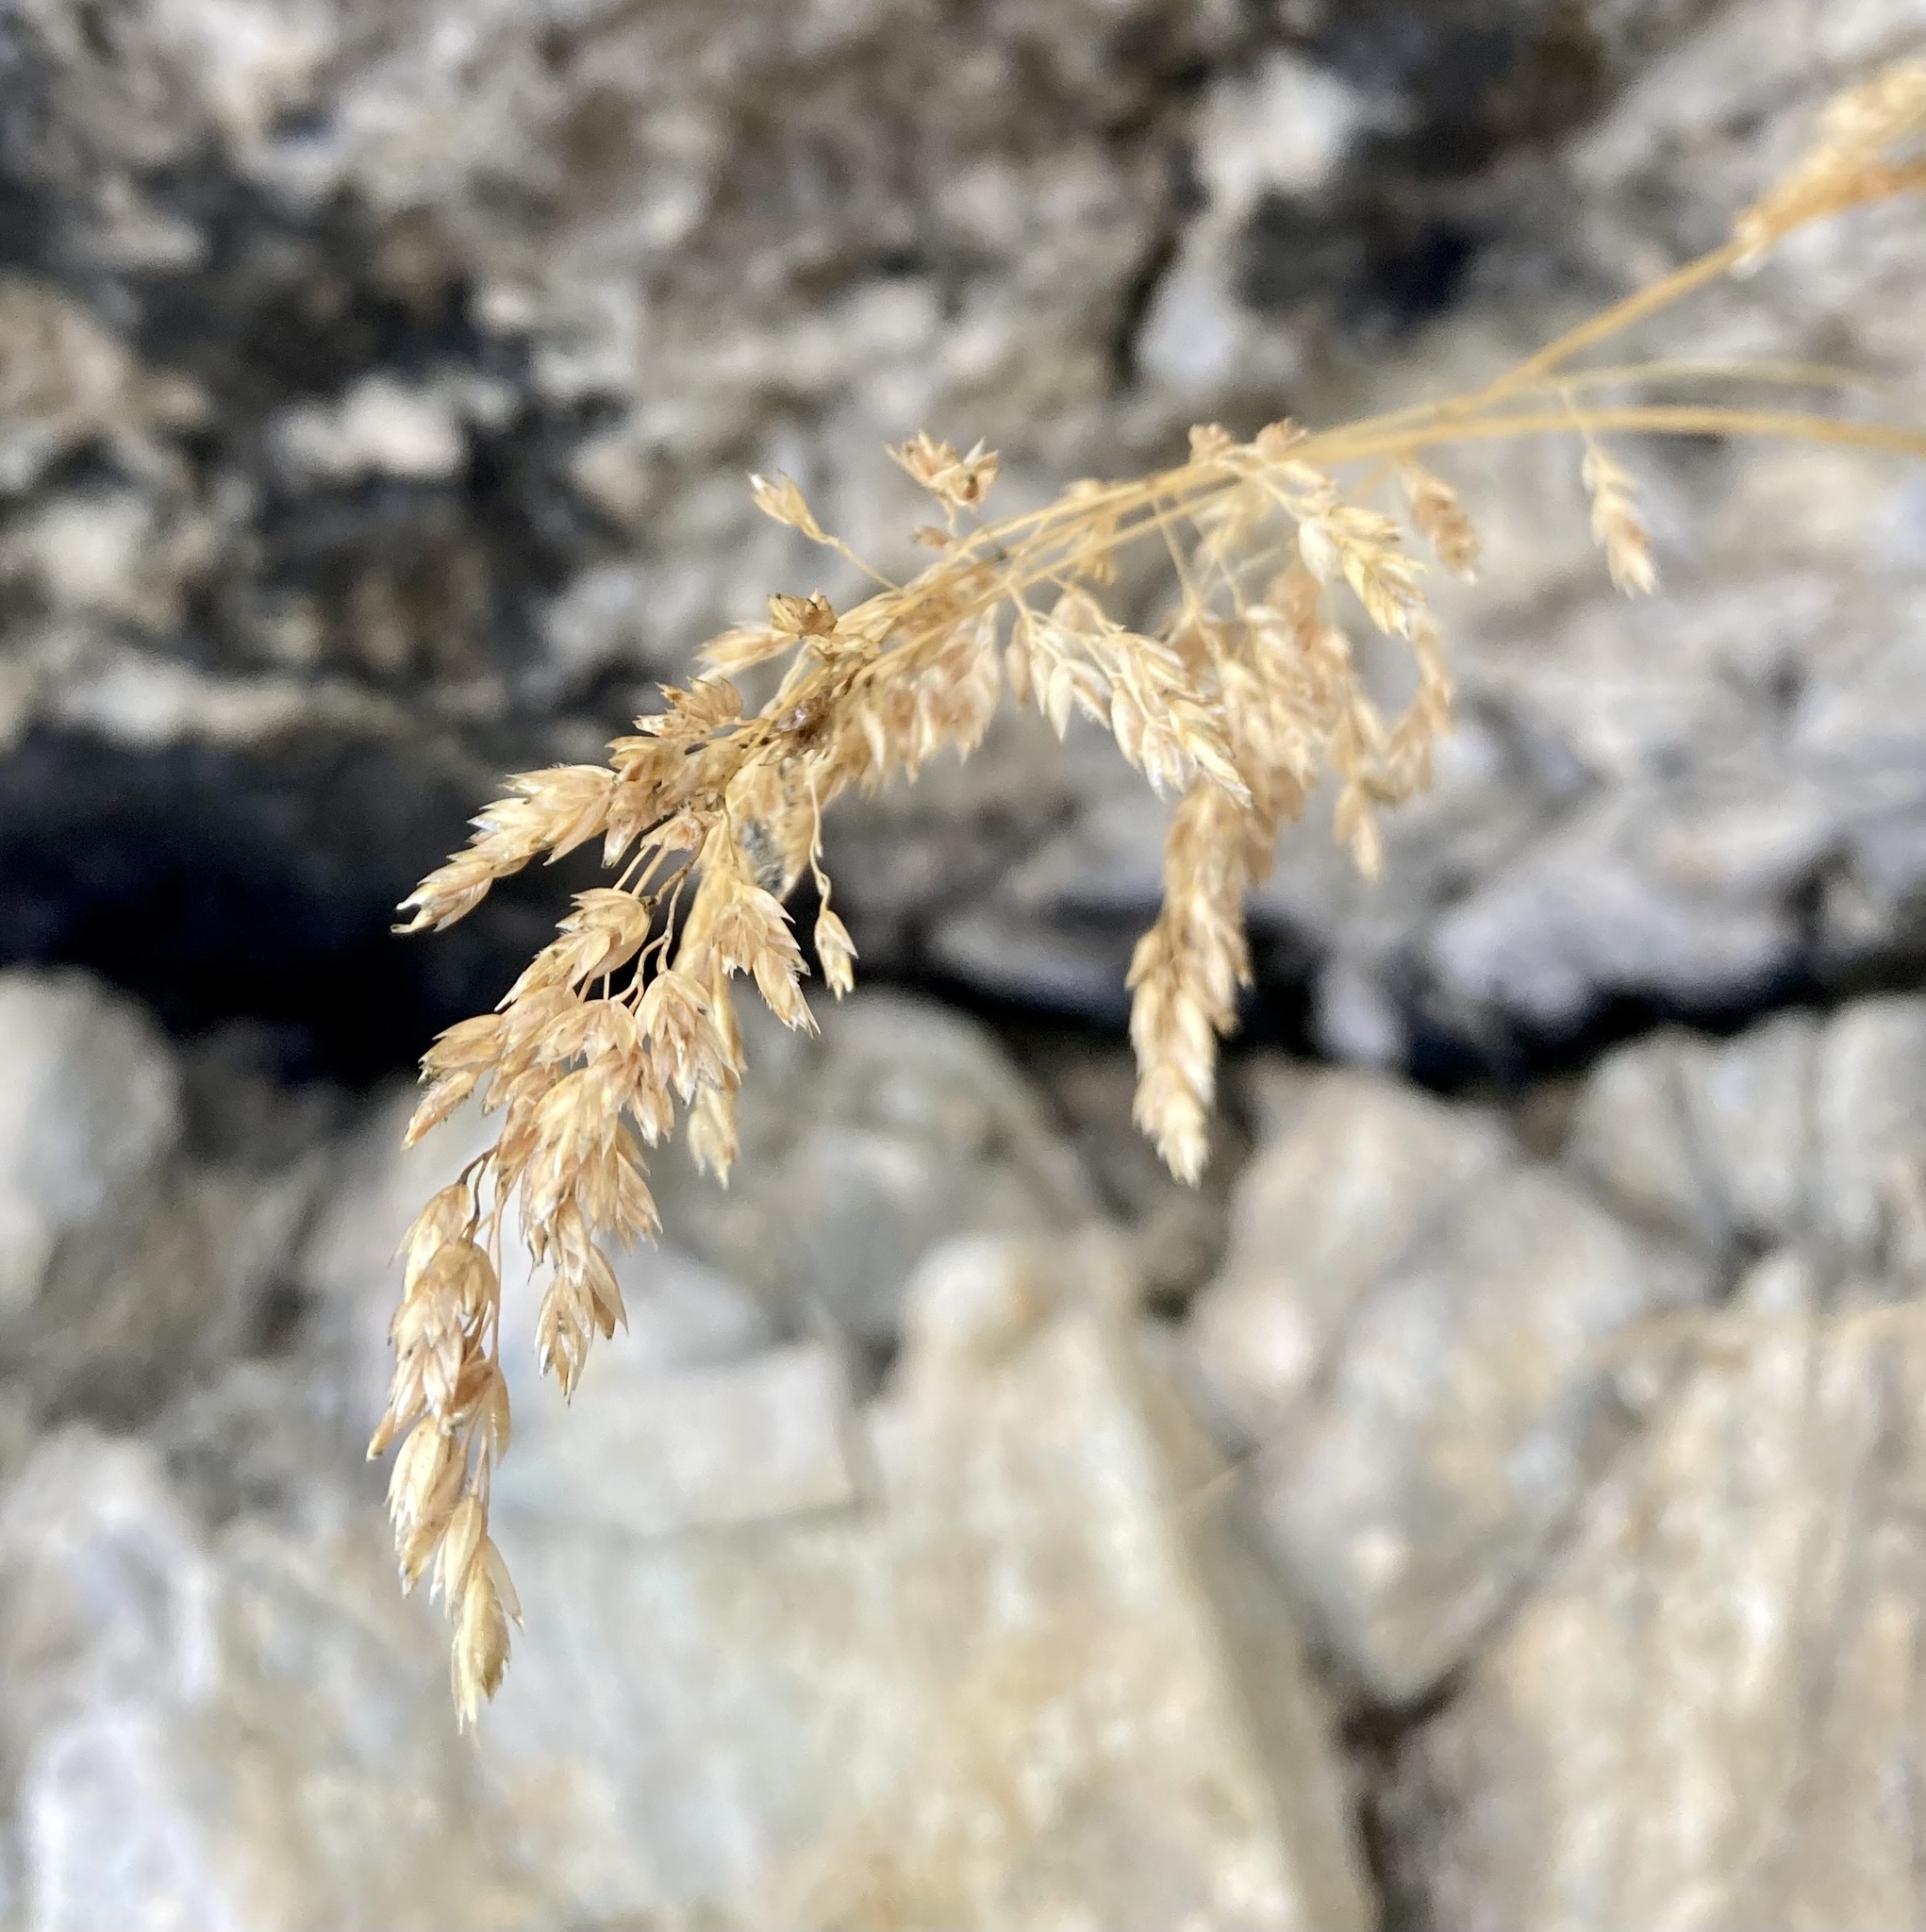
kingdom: Plantae
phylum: Tracheophyta
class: Liliopsida
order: Poales
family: Poaceae
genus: Poa
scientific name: Poa cenisia
